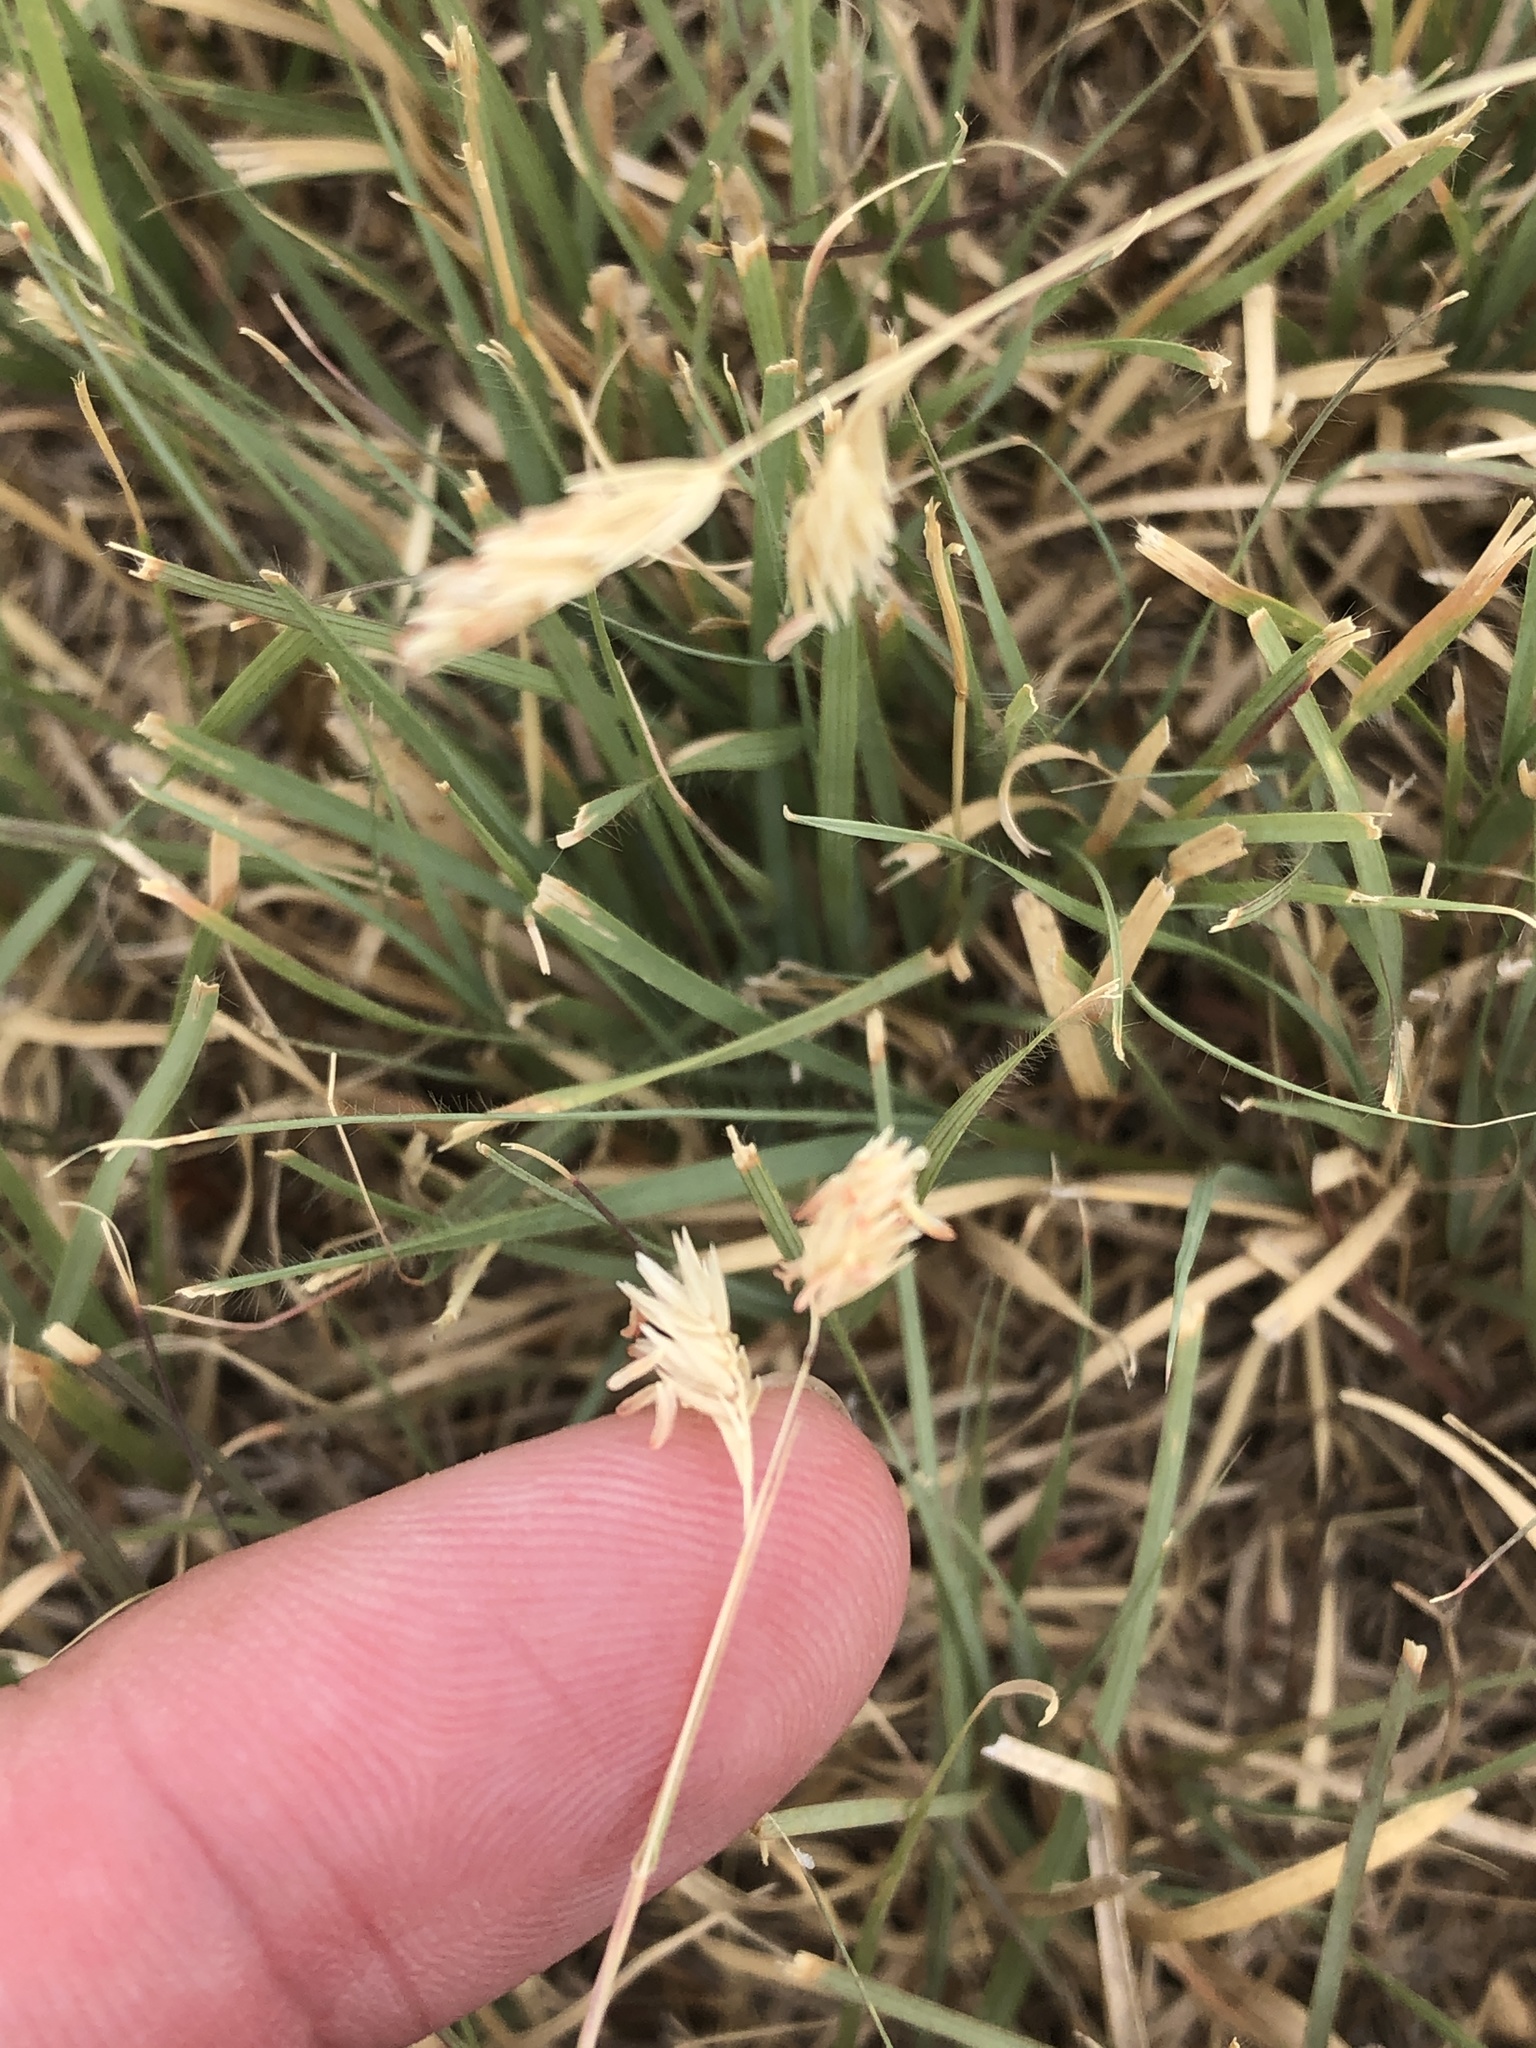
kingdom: Plantae
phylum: Tracheophyta
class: Liliopsida
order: Poales
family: Poaceae
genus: Bouteloua
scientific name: Bouteloua dactyloides
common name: Buffalo grass
